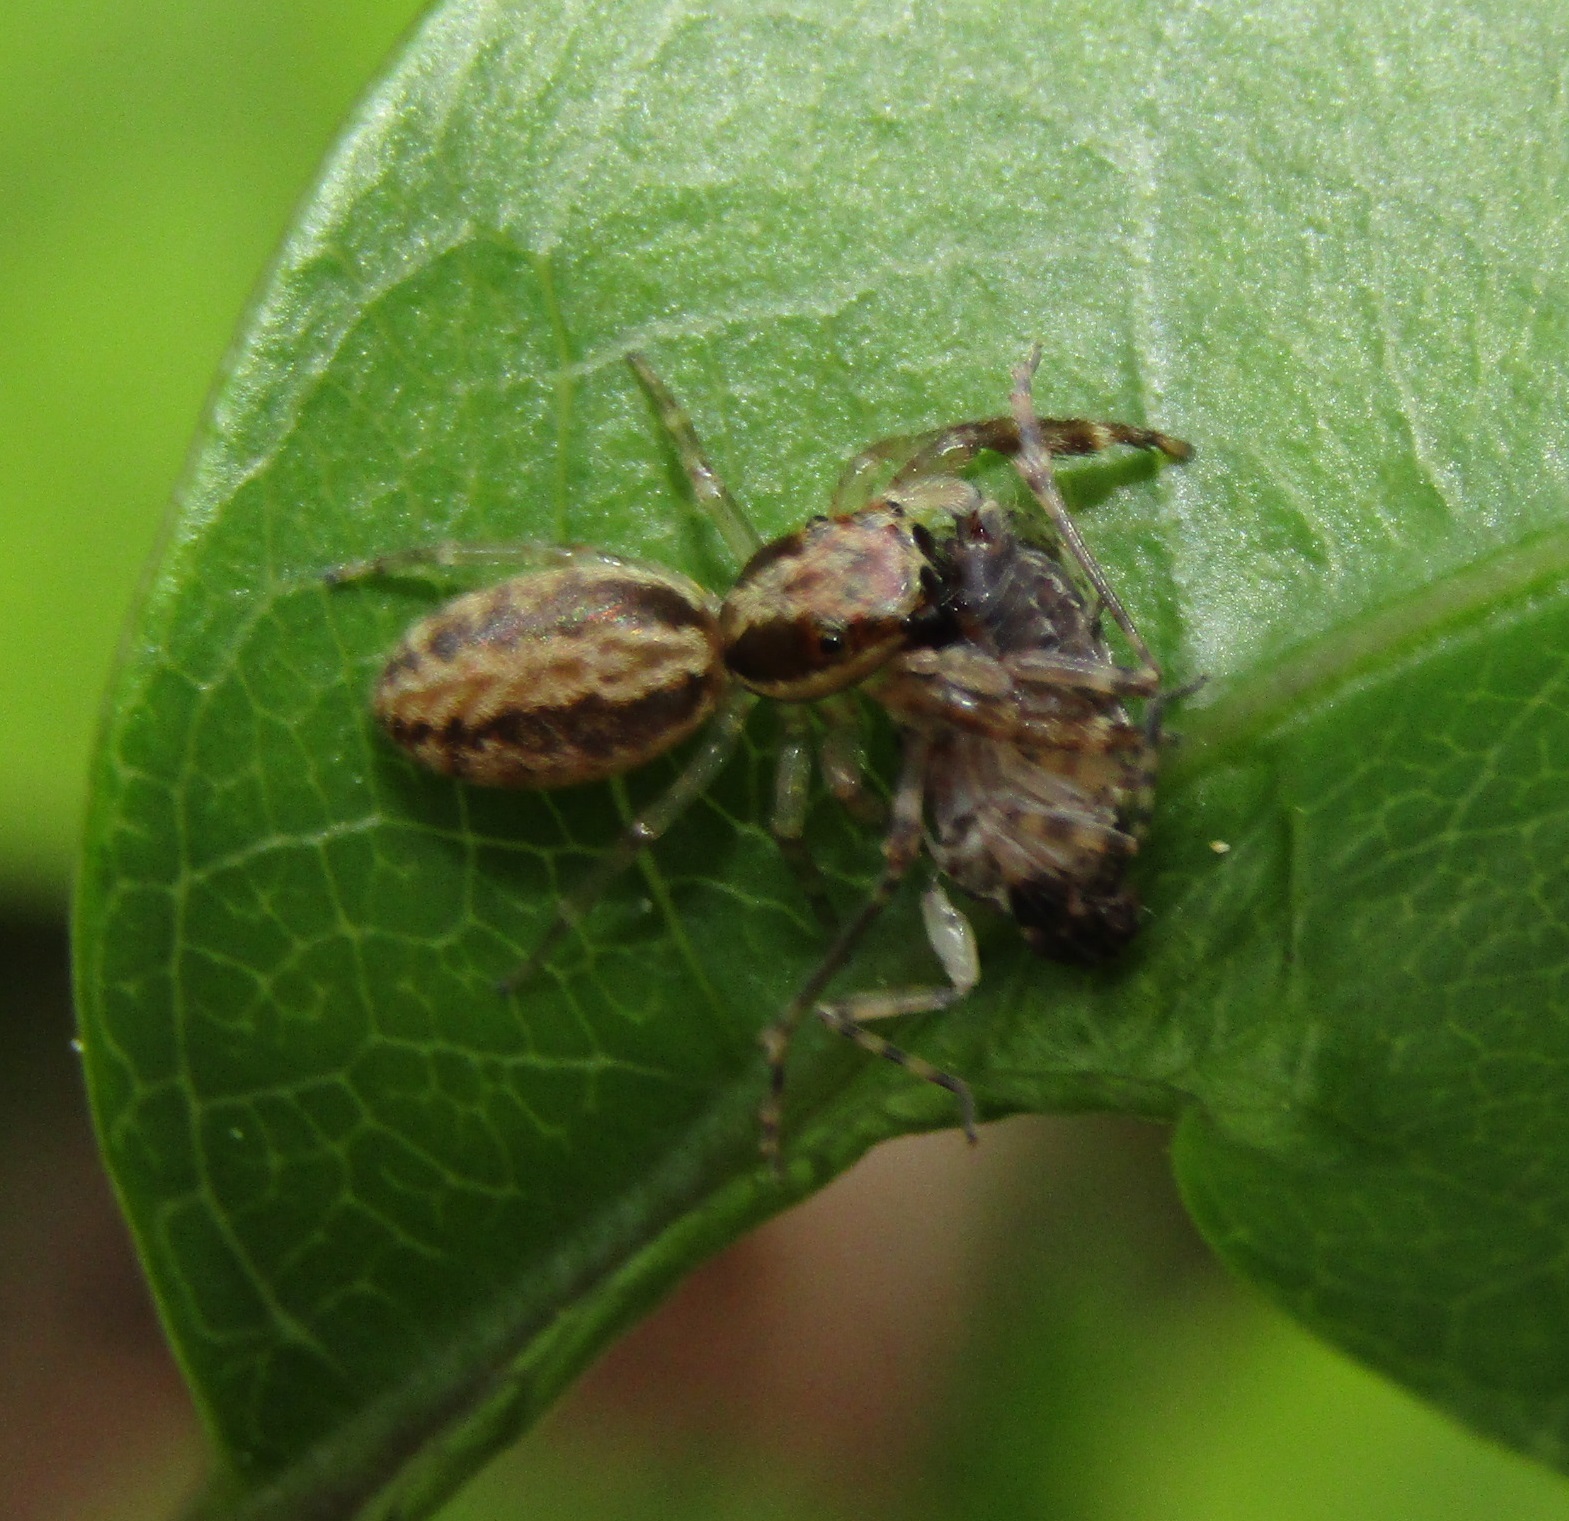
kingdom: Animalia
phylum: Arthropoda
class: Arachnida
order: Araneae
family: Salticidae
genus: Trite
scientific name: Trite mustilina
